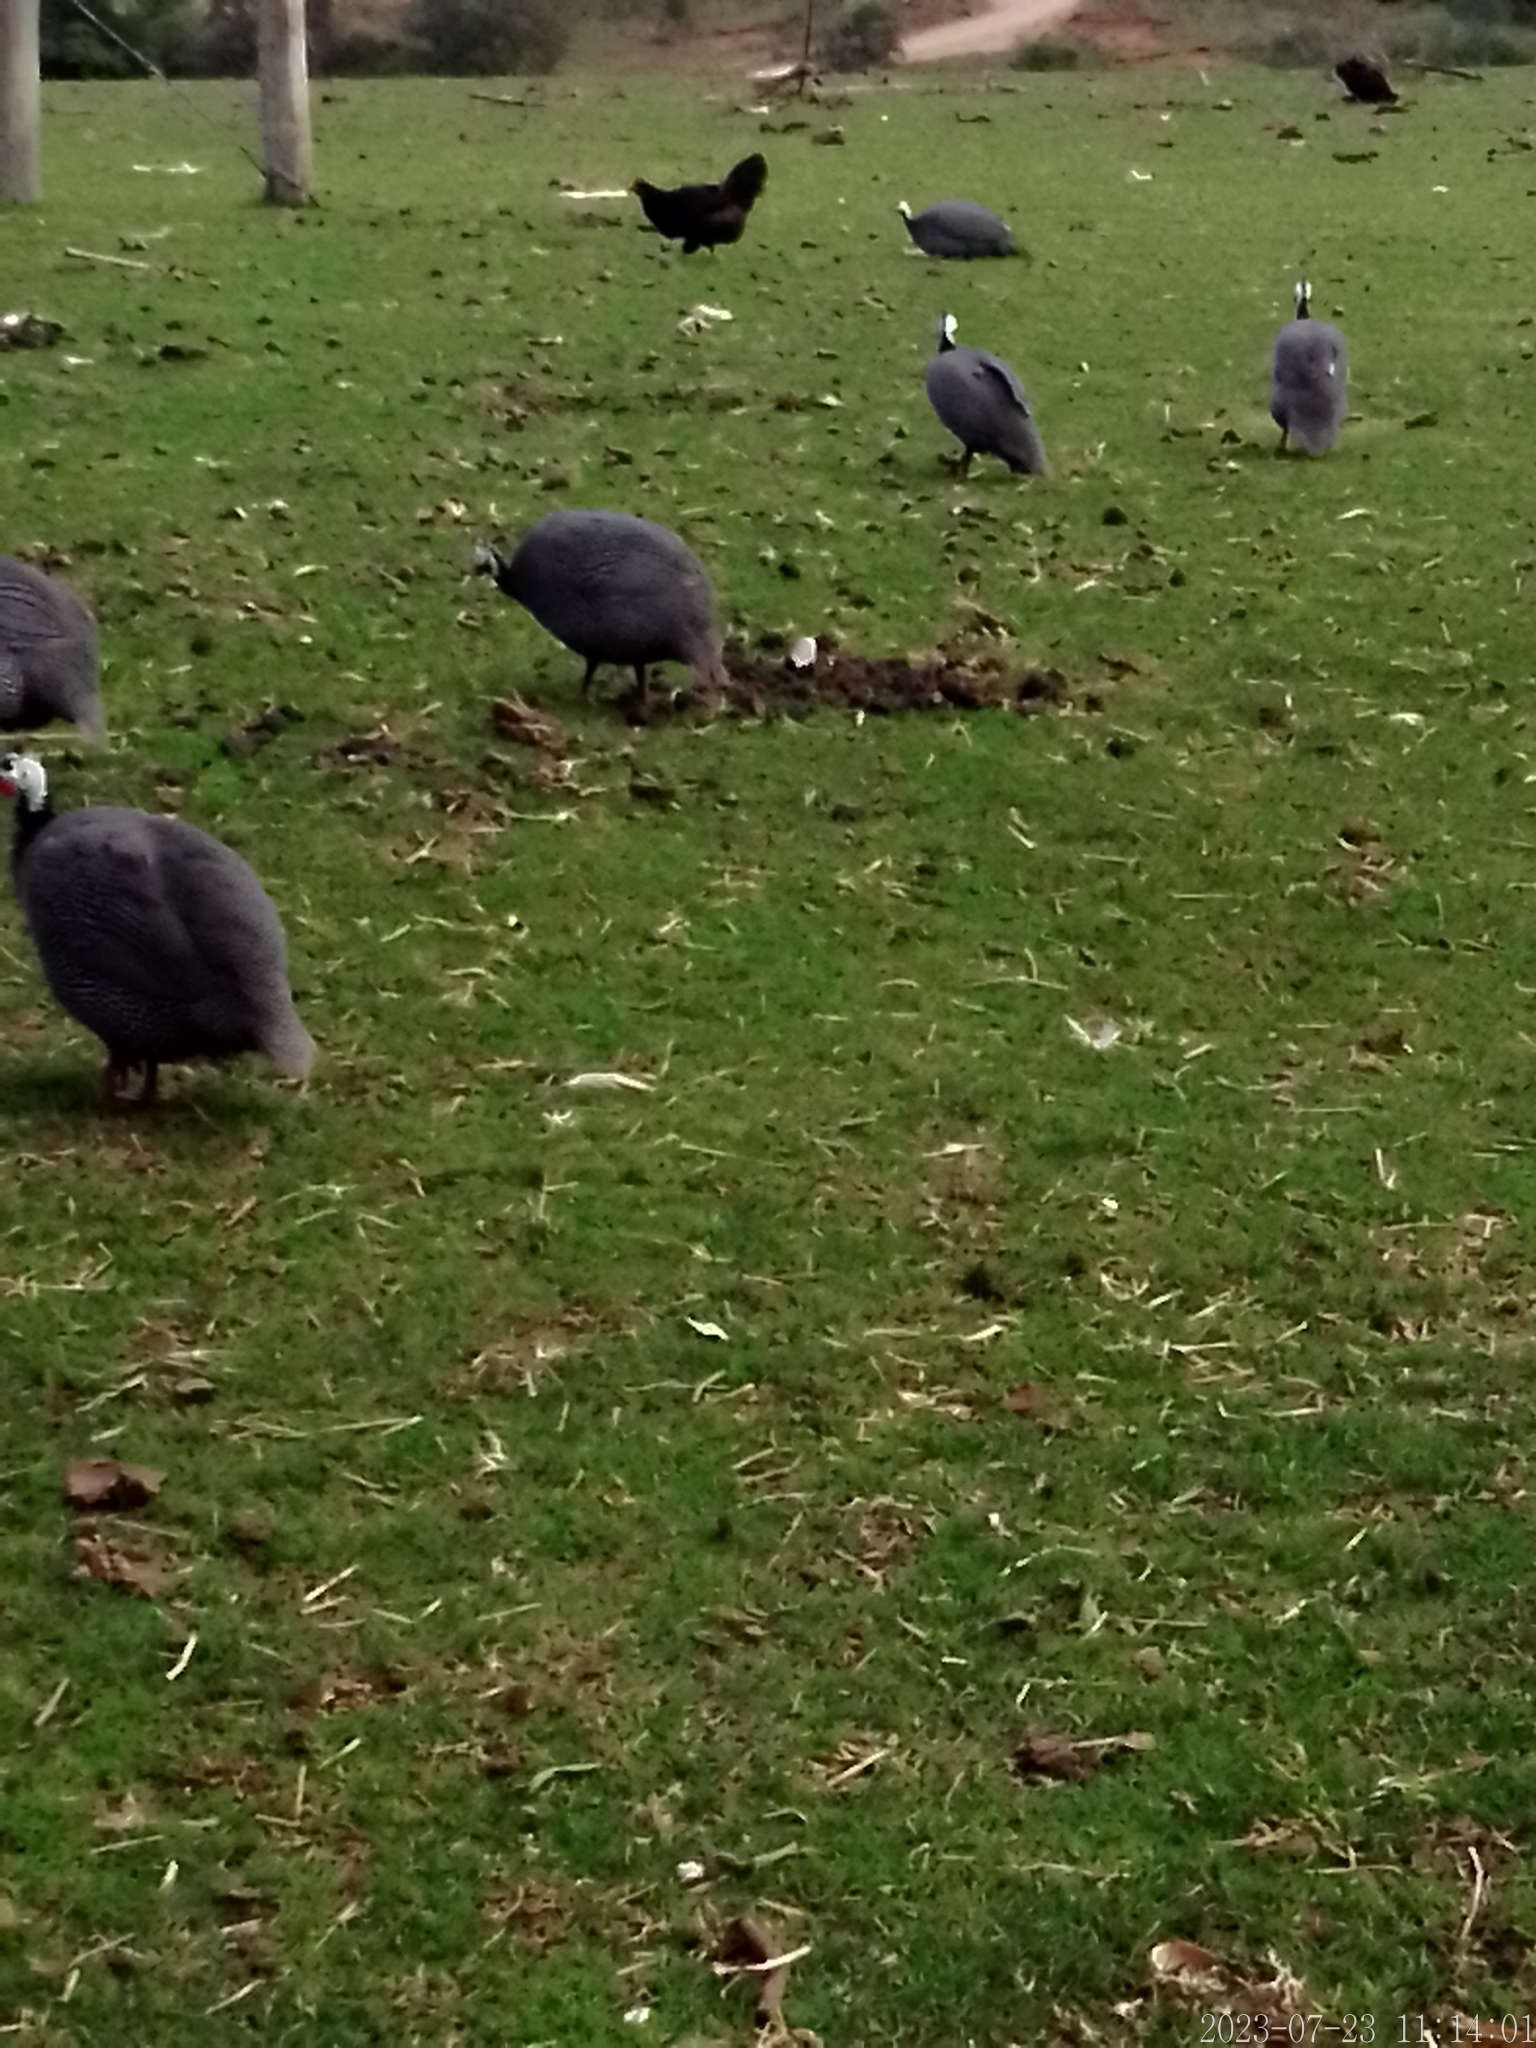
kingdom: Animalia
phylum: Chordata
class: Aves
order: Galliformes
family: Numididae
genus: Numida
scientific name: Numida meleagris
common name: Helmeted guineafowl
